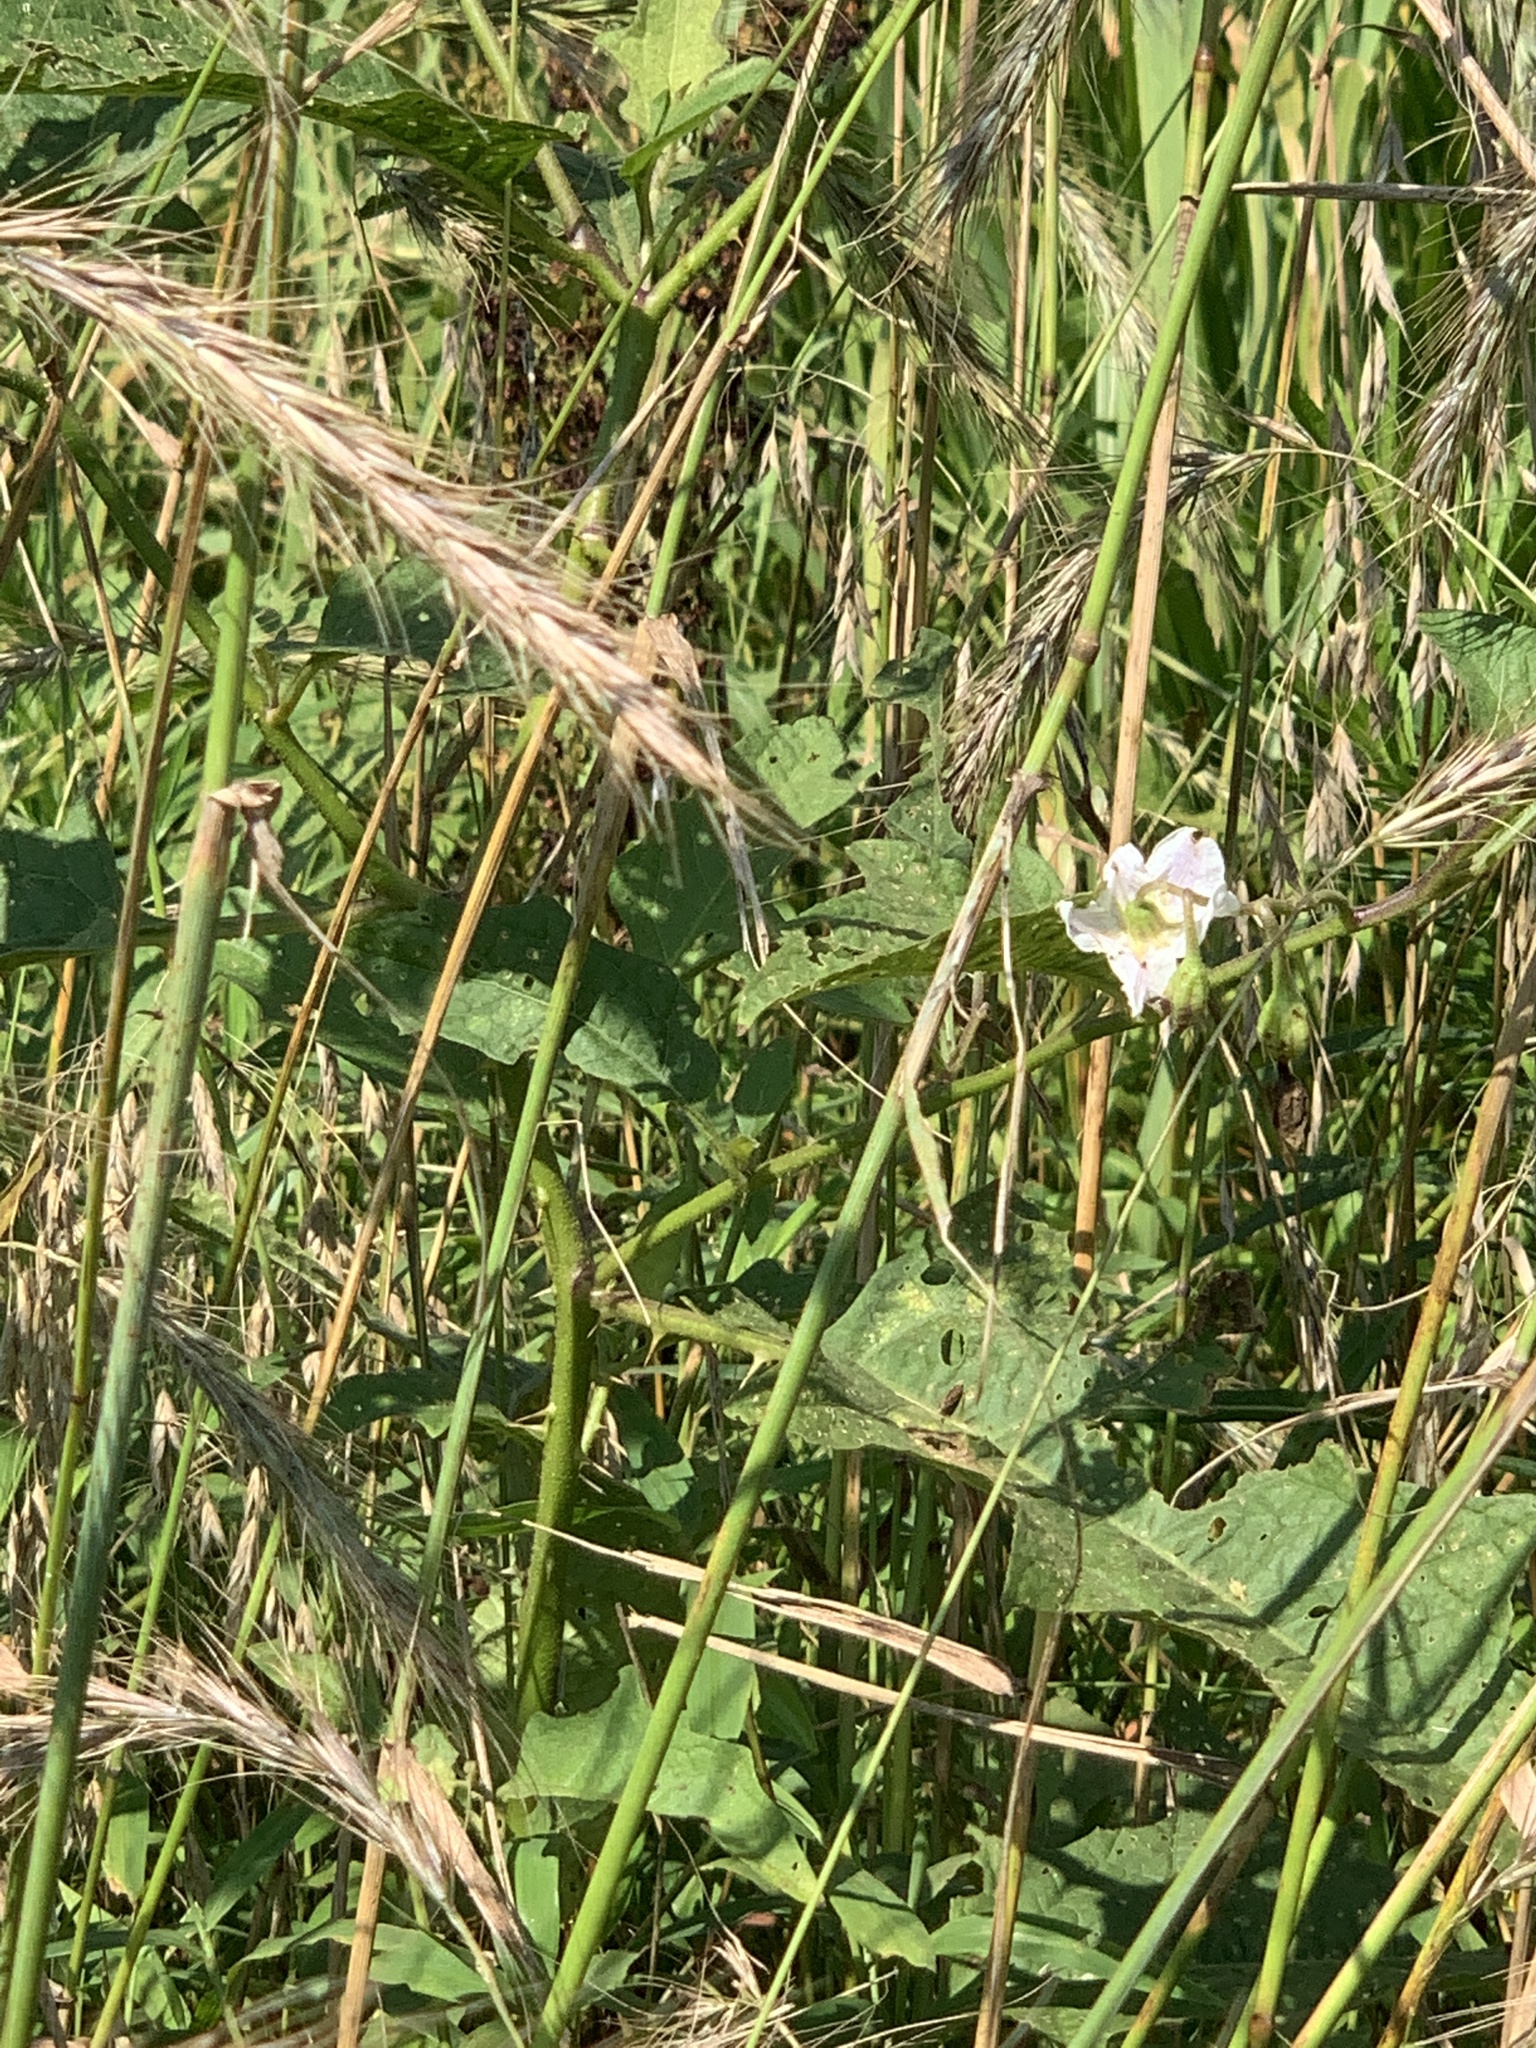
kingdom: Plantae
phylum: Tracheophyta
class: Magnoliopsida
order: Solanales
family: Solanaceae
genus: Solanum
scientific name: Solanum carolinense
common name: Horse-nettle
